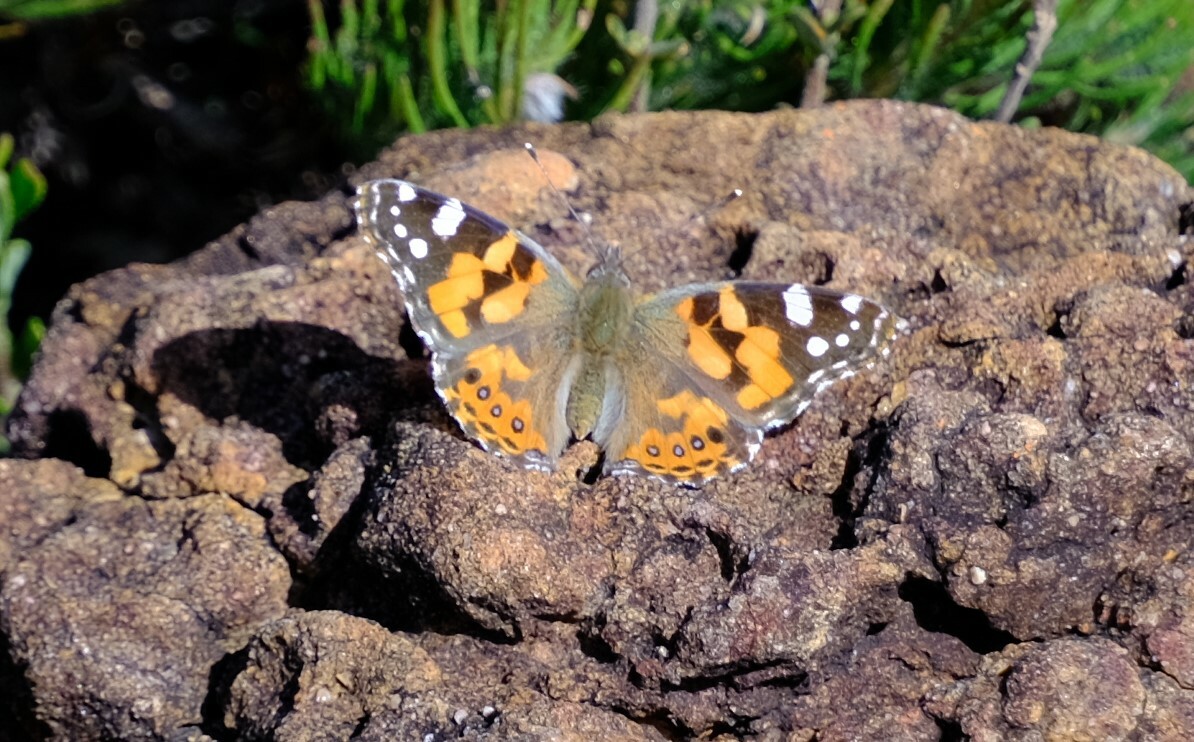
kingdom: Animalia
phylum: Arthropoda
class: Insecta
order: Lepidoptera
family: Nymphalidae
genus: Vanessa
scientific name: Vanessa kershawi
